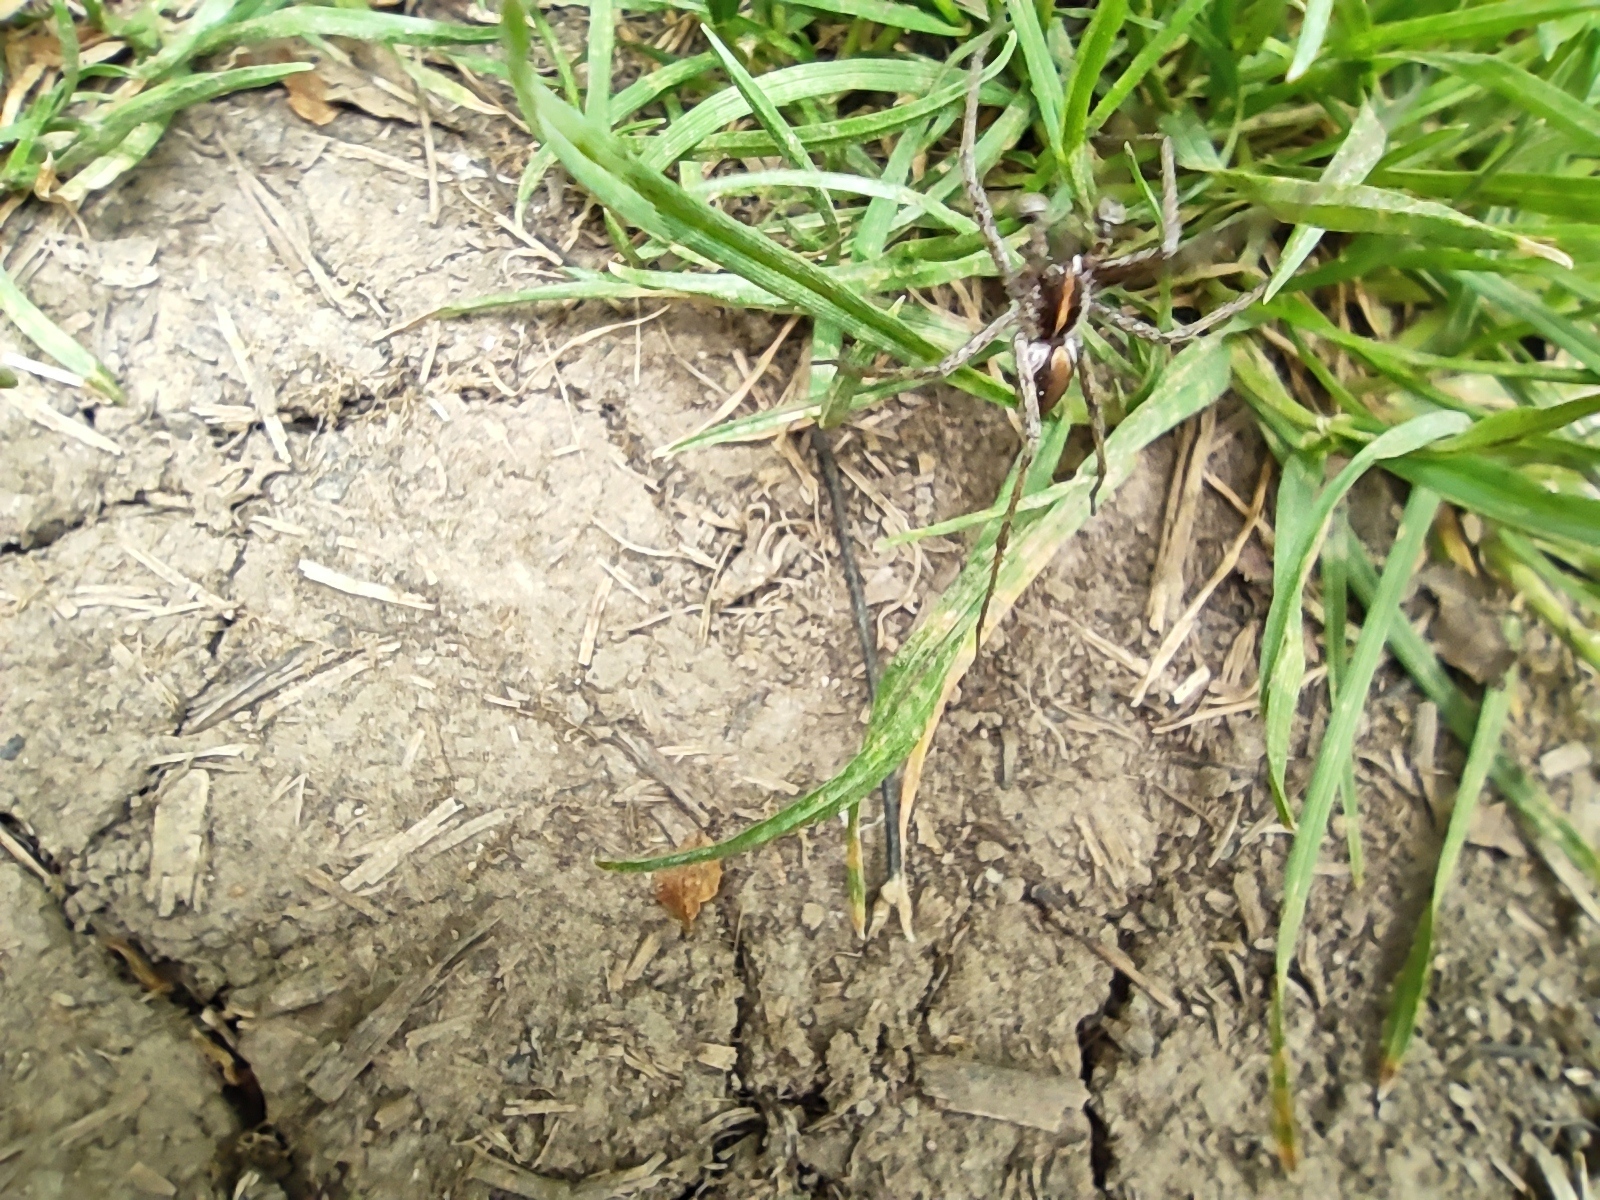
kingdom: Animalia
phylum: Arthropoda
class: Arachnida
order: Araneae
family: Pisauridae
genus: Pisaura
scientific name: Pisaura mirabilis
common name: Tent spider
